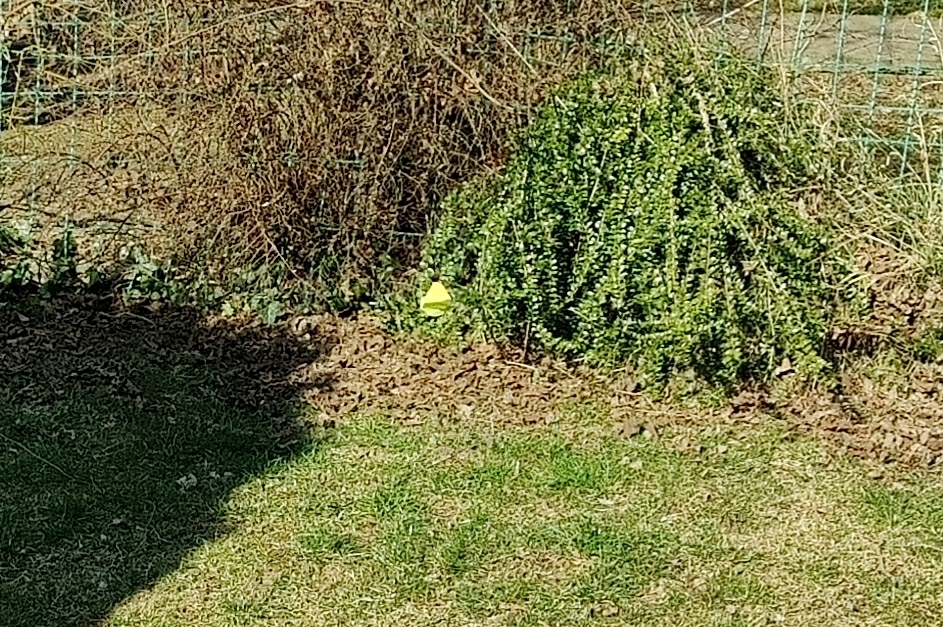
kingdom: Animalia
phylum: Arthropoda
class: Insecta
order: Lepidoptera
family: Pieridae
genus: Gonepteryx
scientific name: Gonepteryx rhamni
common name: Brimstone
